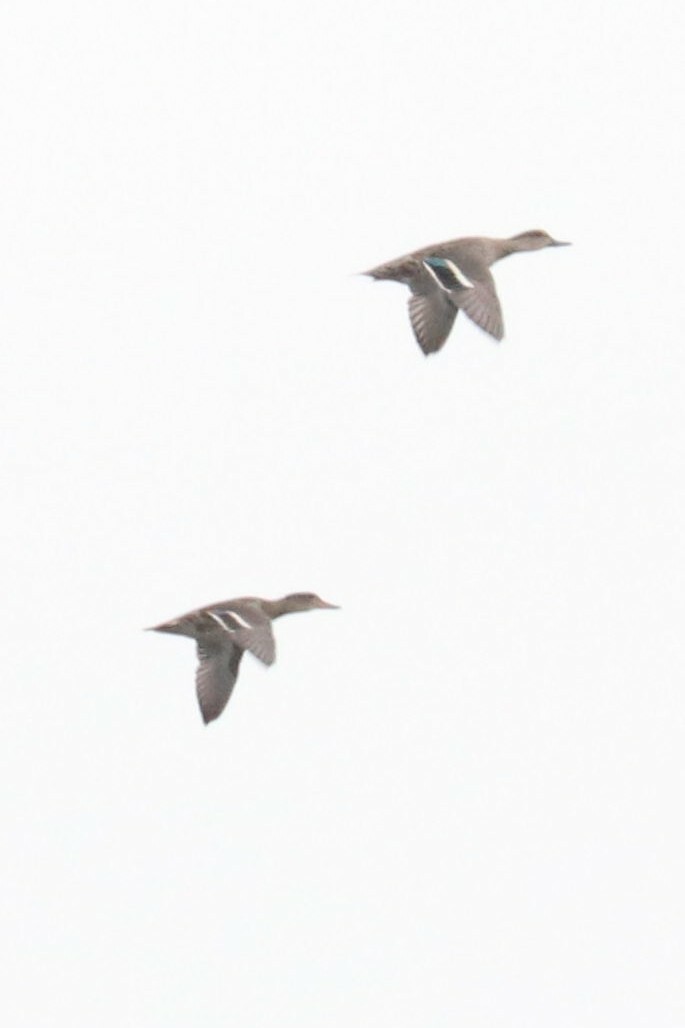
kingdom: Animalia
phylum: Chordata
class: Aves
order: Anseriformes
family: Anatidae
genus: Anas
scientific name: Anas crecca
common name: Eurasian teal
